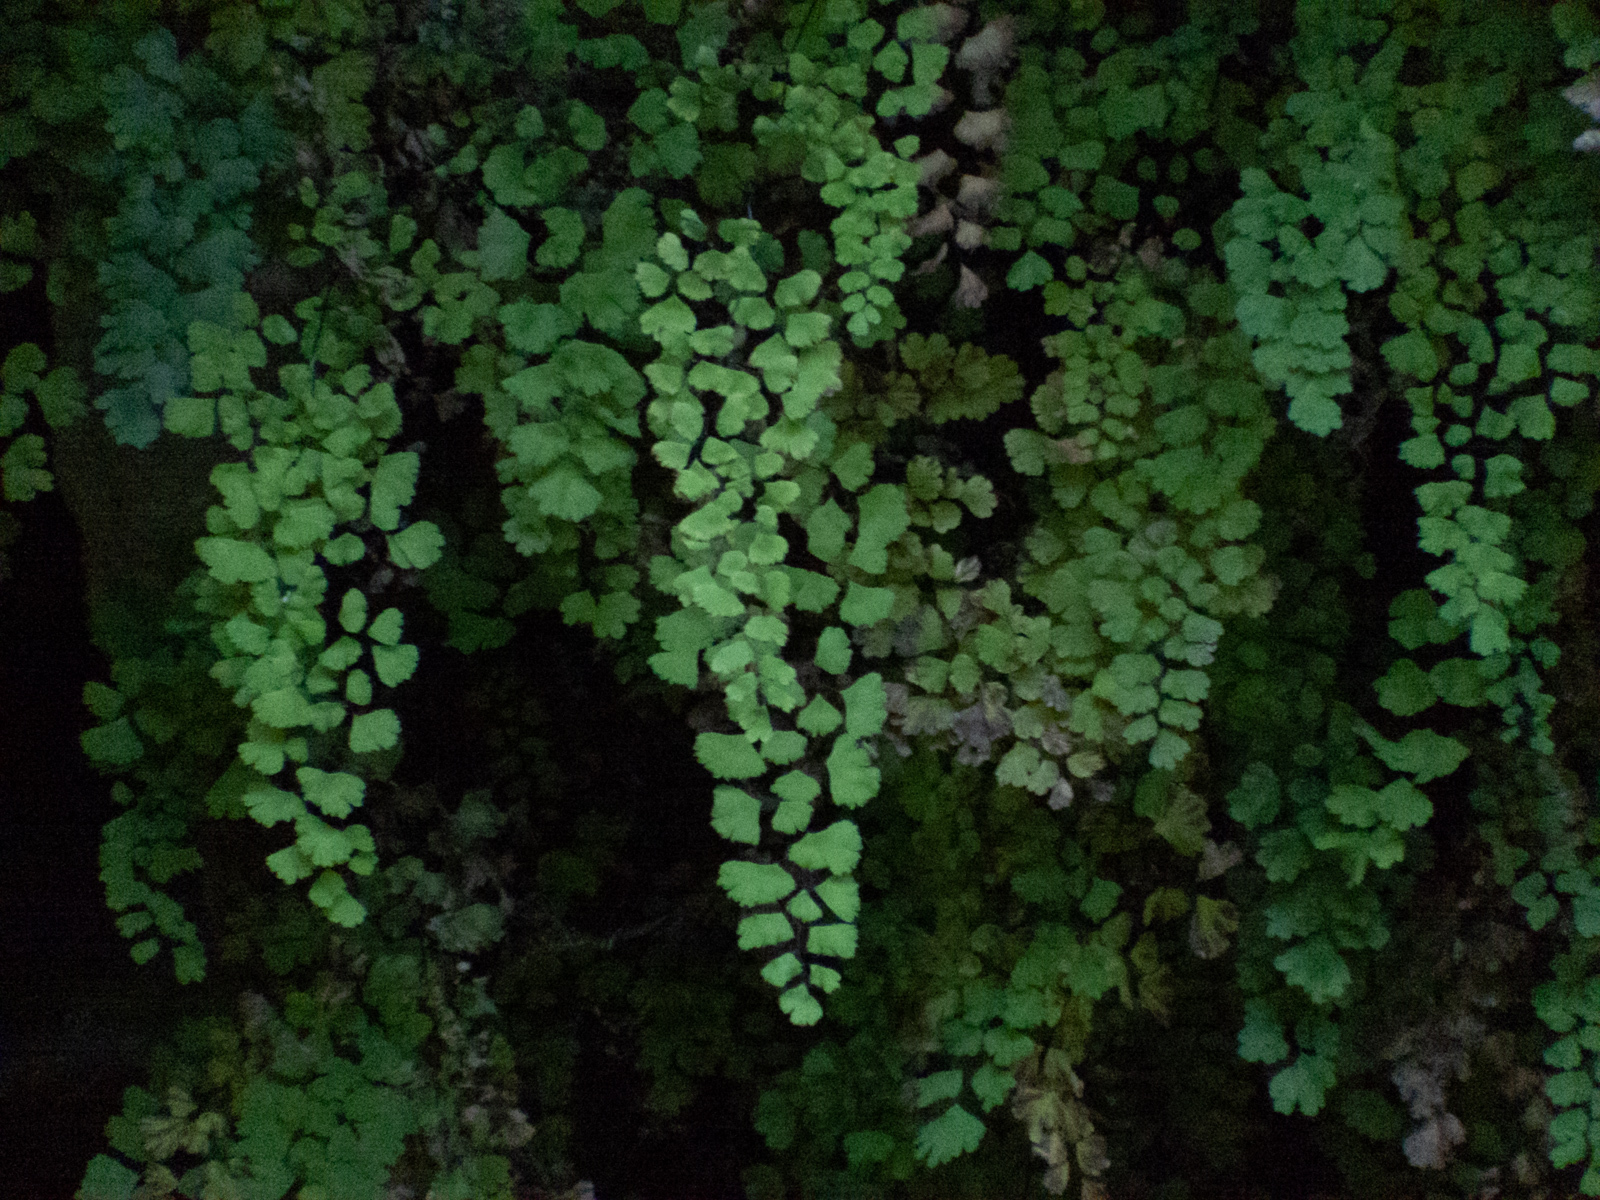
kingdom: Plantae
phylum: Tracheophyta
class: Polypodiopsida
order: Polypodiales
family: Pteridaceae
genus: Adiantum
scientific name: Adiantum jordanii
